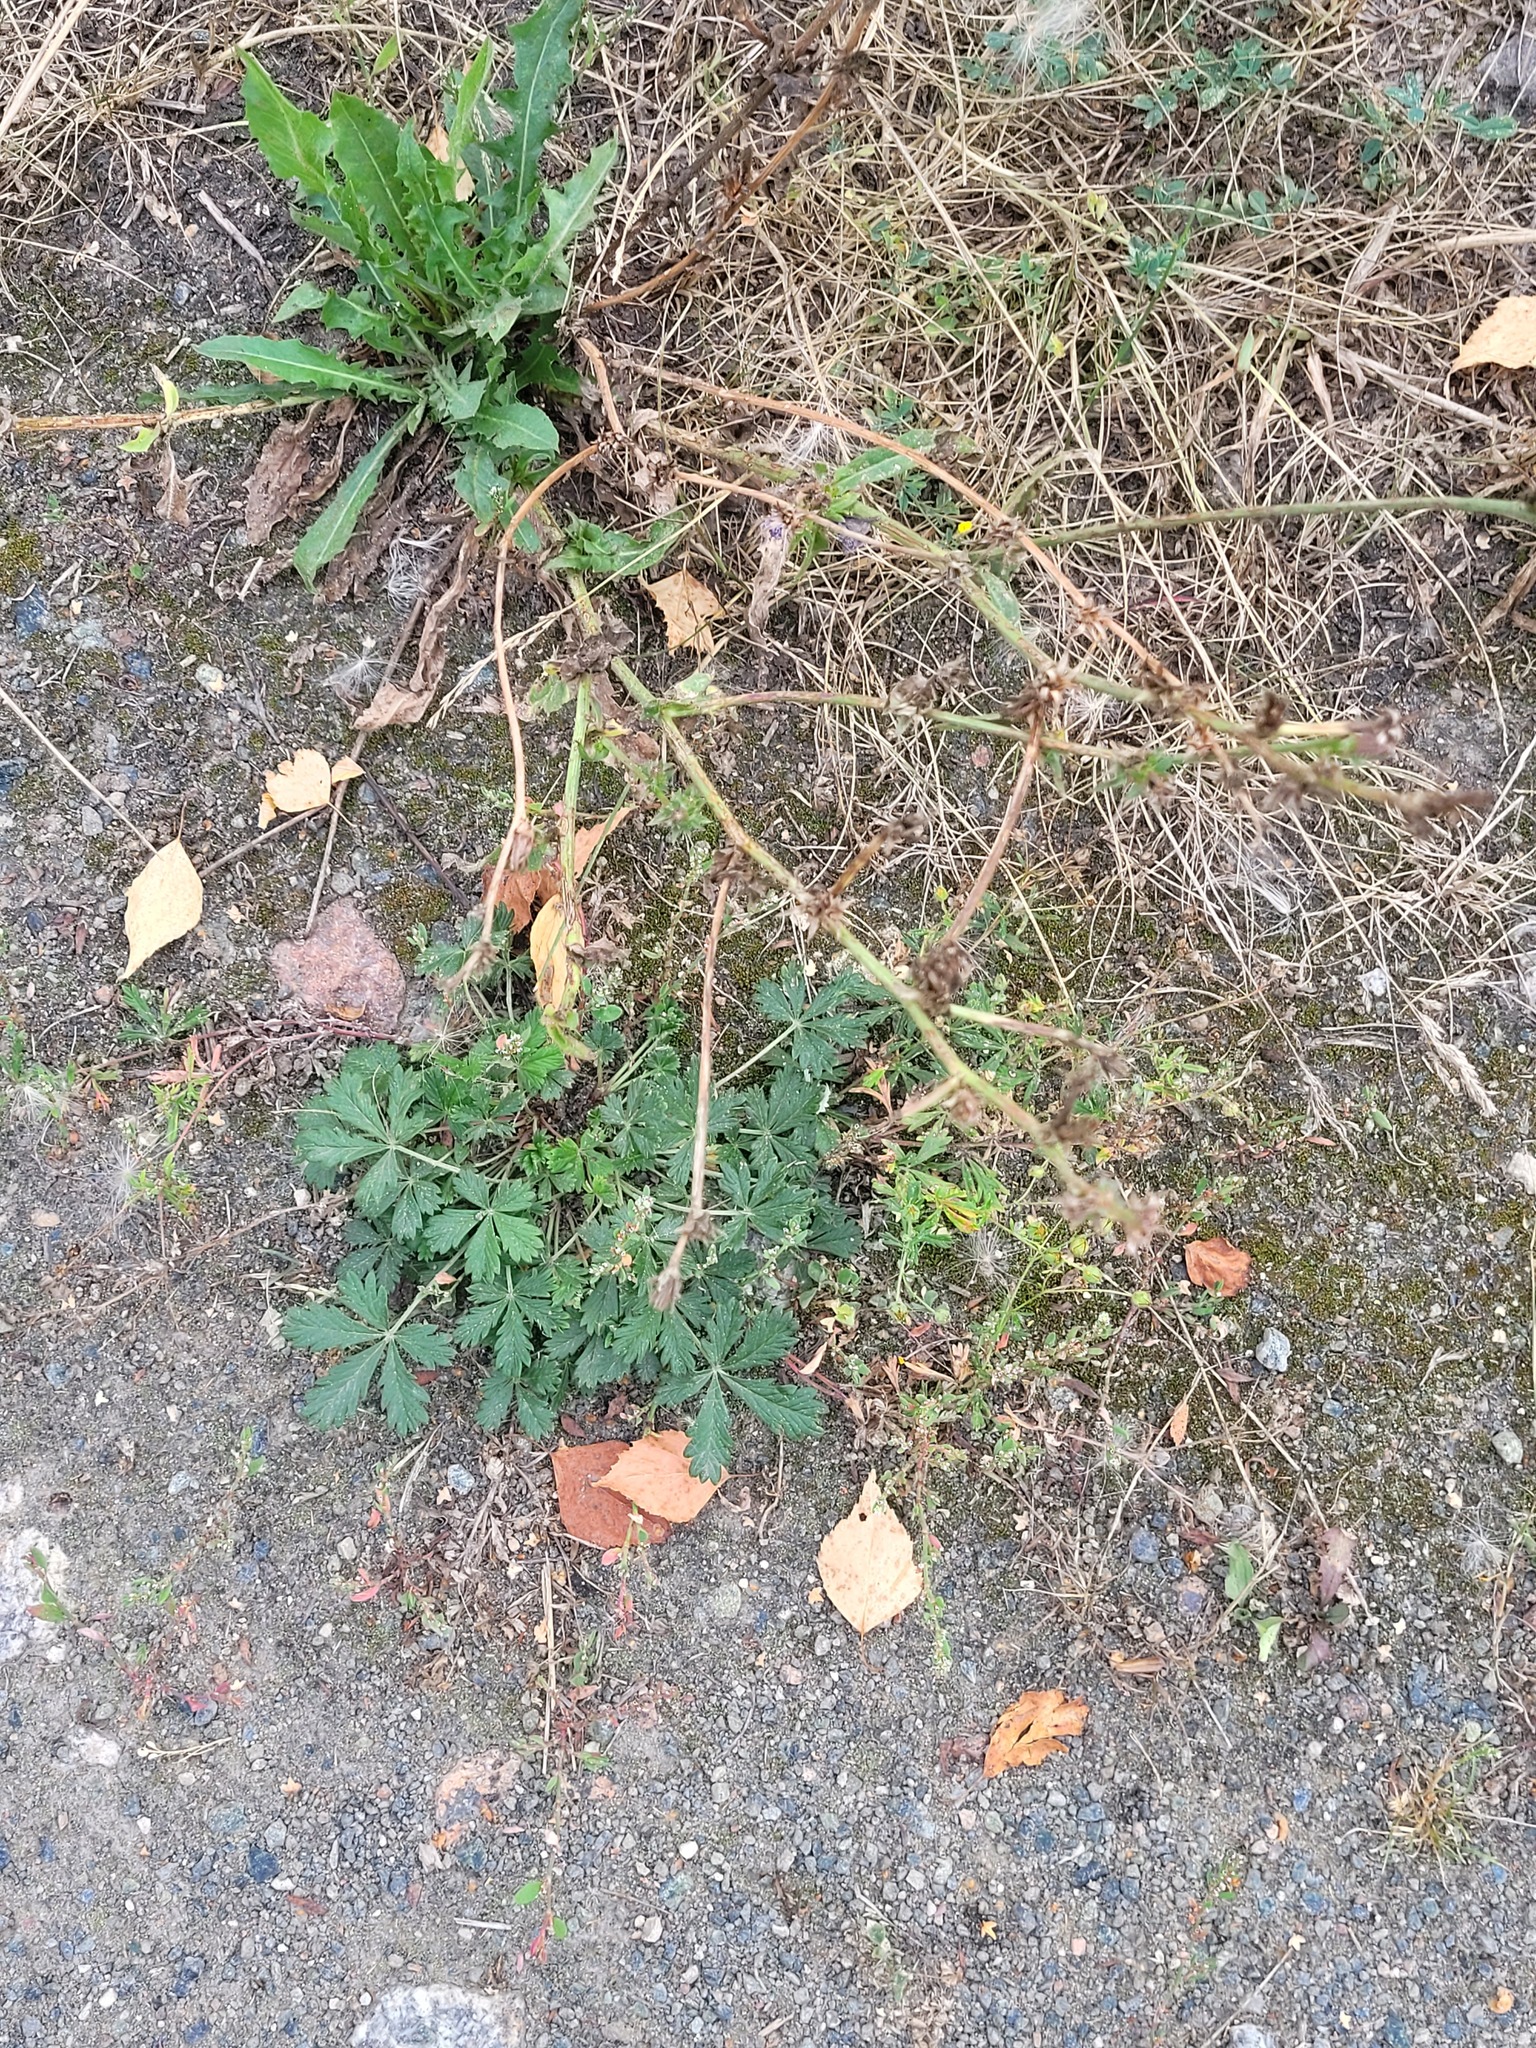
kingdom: Plantae
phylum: Tracheophyta
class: Magnoliopsida
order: Rosales
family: Rosaceae
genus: Potentilla
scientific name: Potentilla argentea
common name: Hoary cinquefoil
